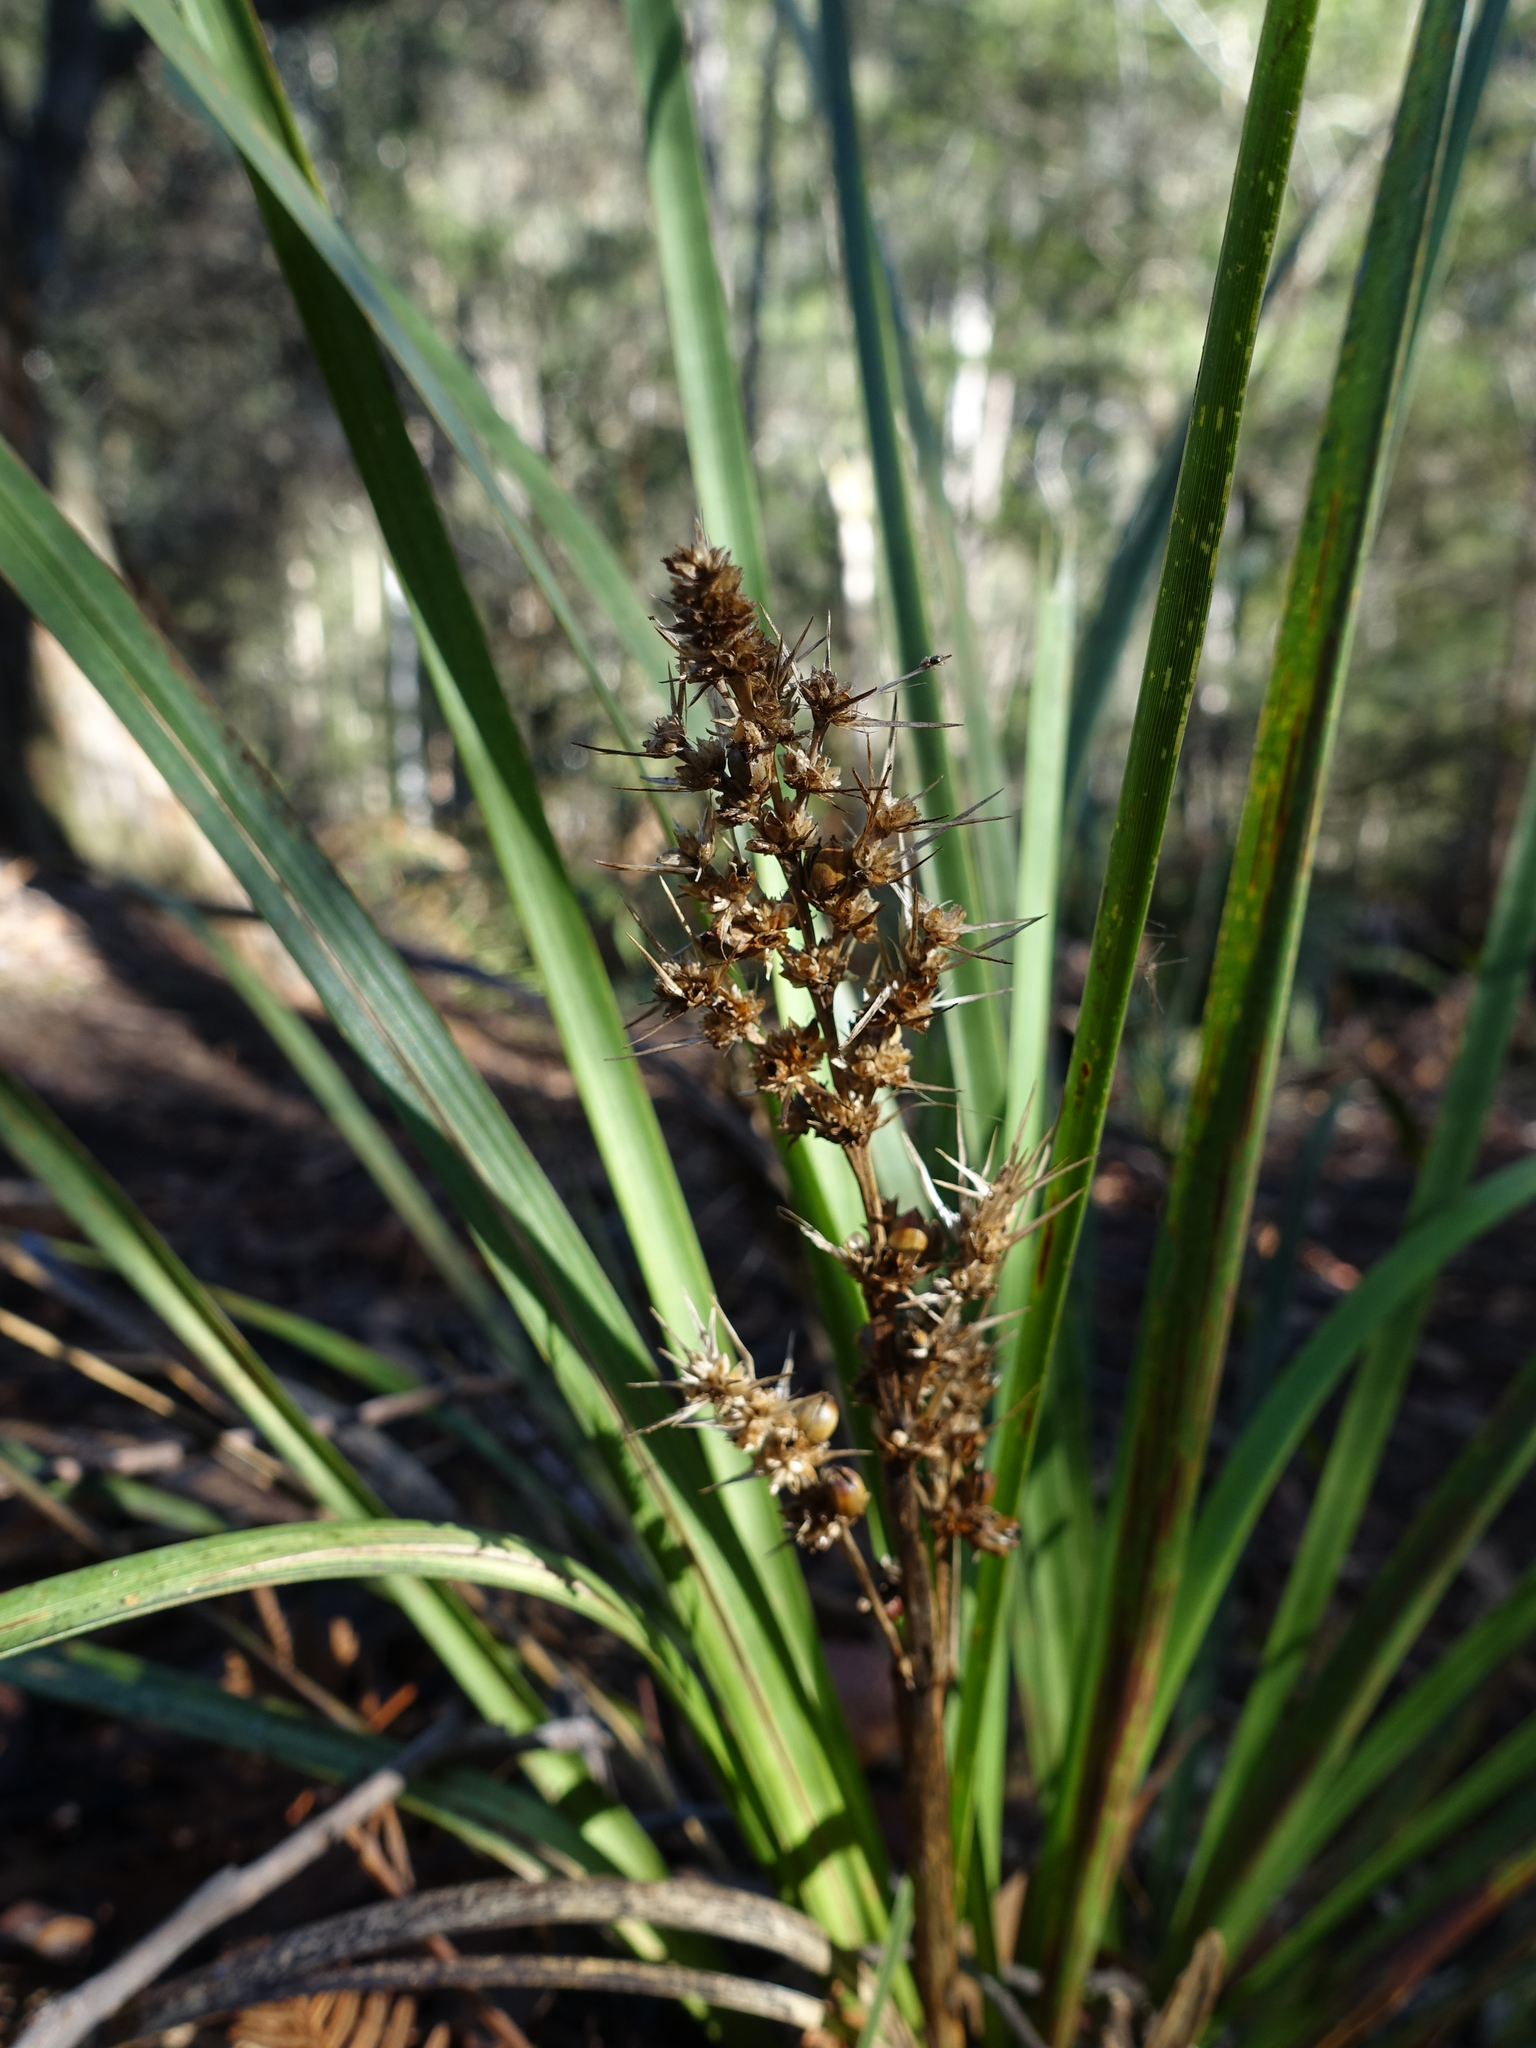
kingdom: Plantae
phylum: Tracheophyta
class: Liliopsida
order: Asparagales
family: Asparagaceae
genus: Lomandra
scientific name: Lomandra longifolia
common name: Longleaf mat-rush
